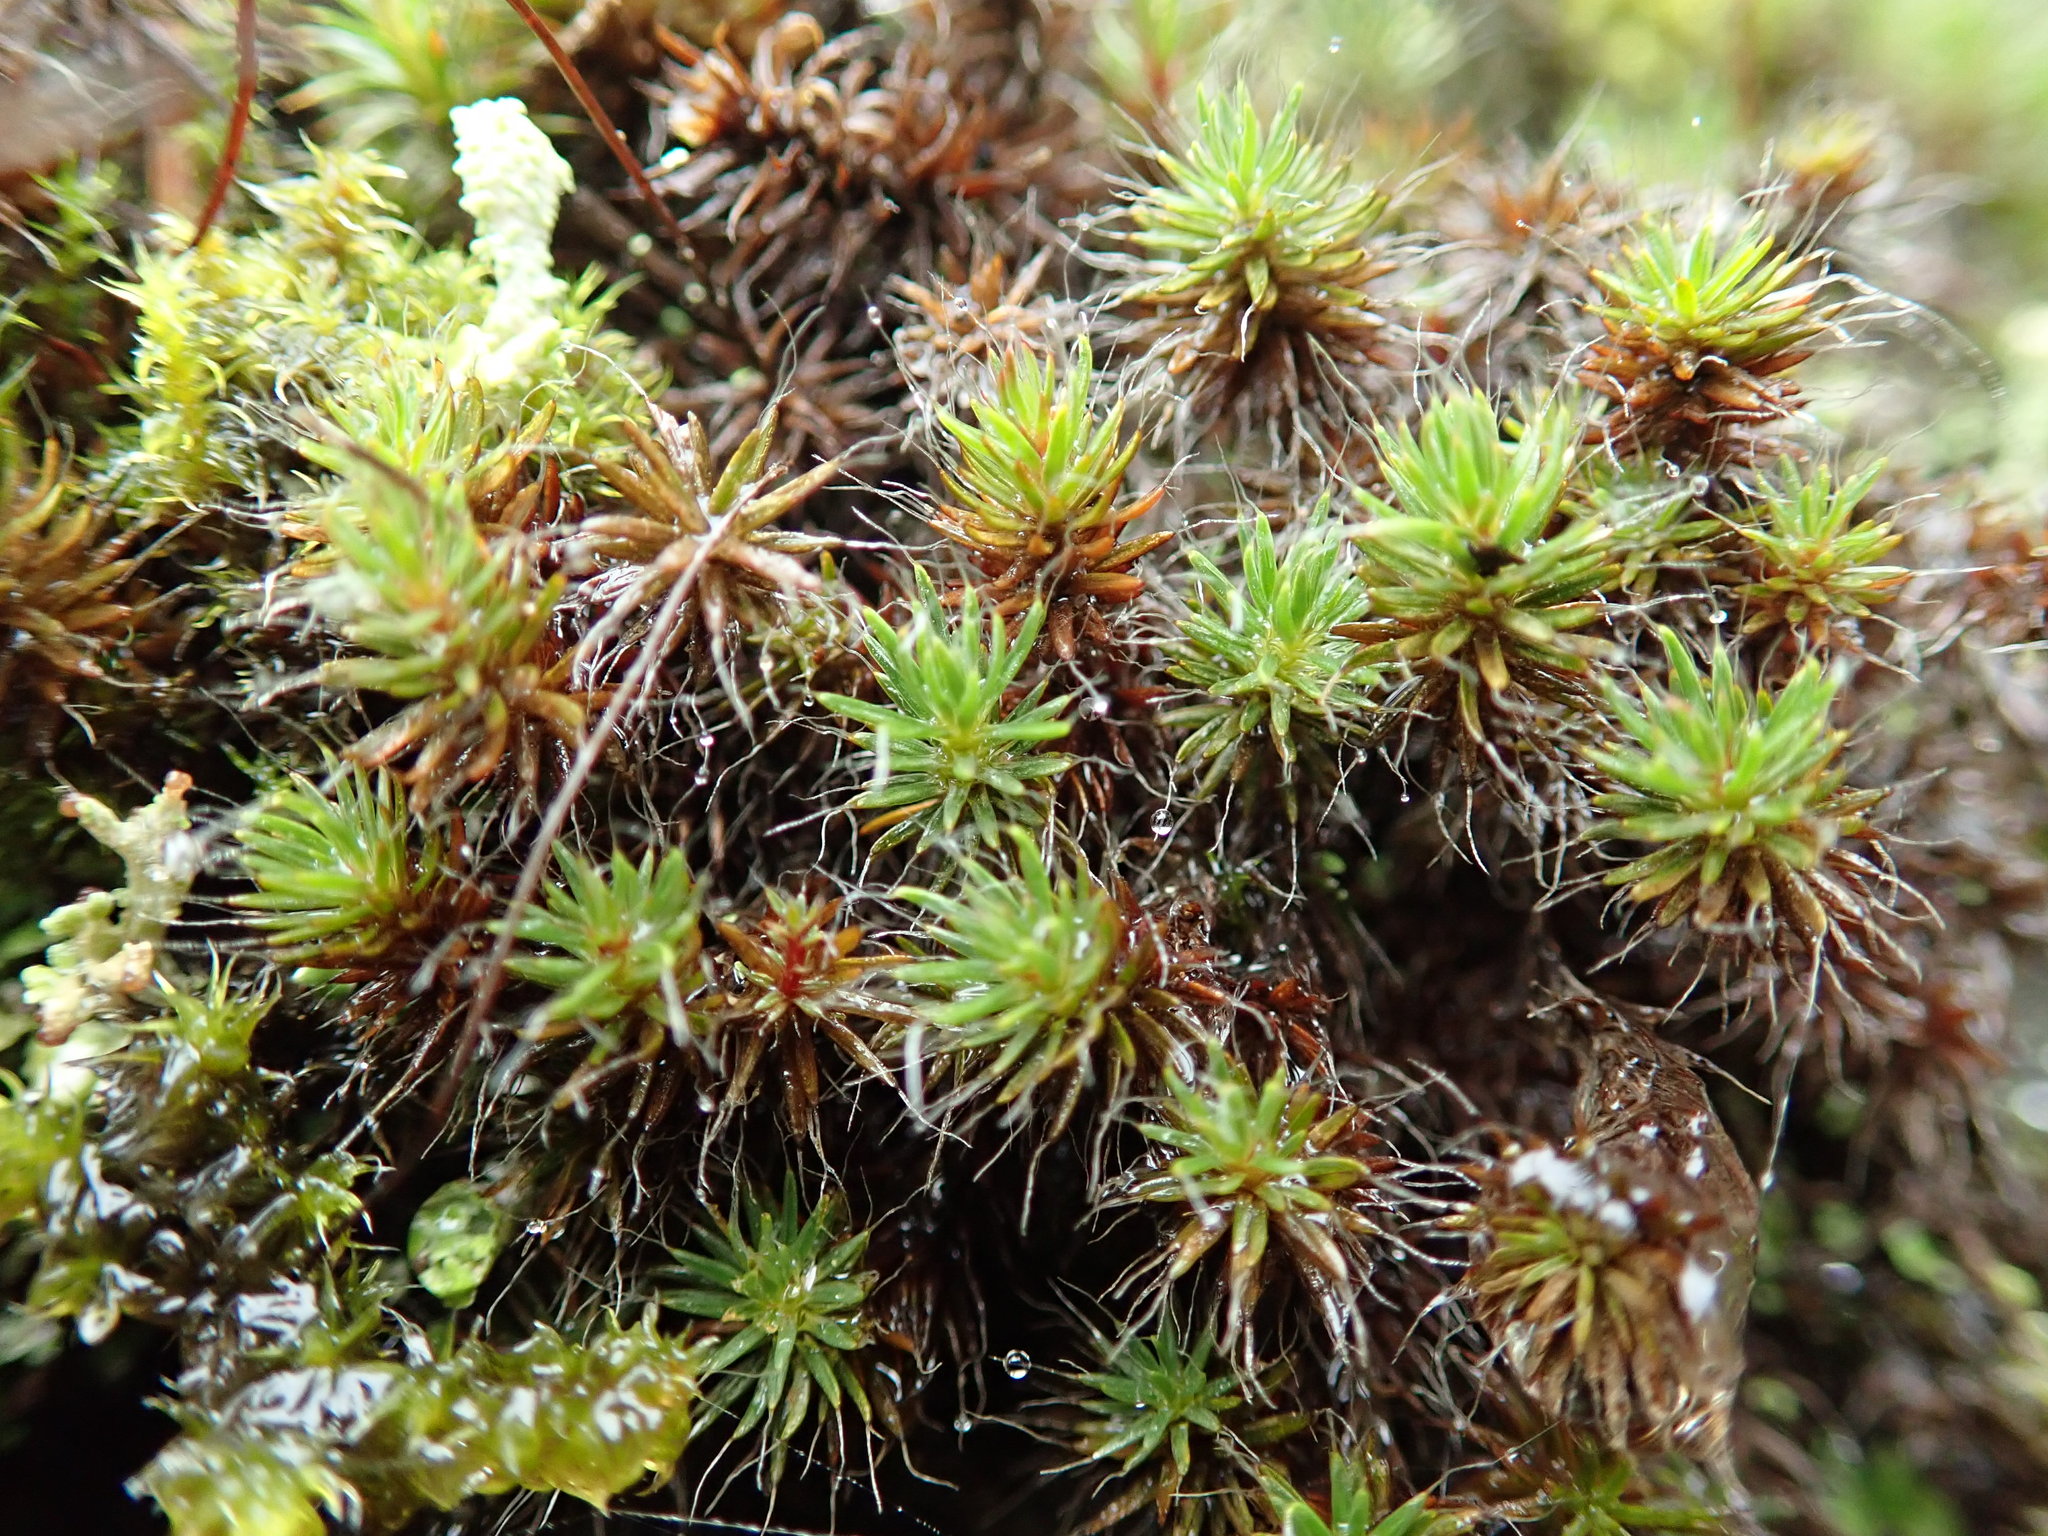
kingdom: Plantae
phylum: Bryophyta
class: Polytrichopsida
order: Polytrichales
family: Polytrichaceae
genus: Polytrichum
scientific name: Polytrichum piliferum
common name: Bristly haircap
